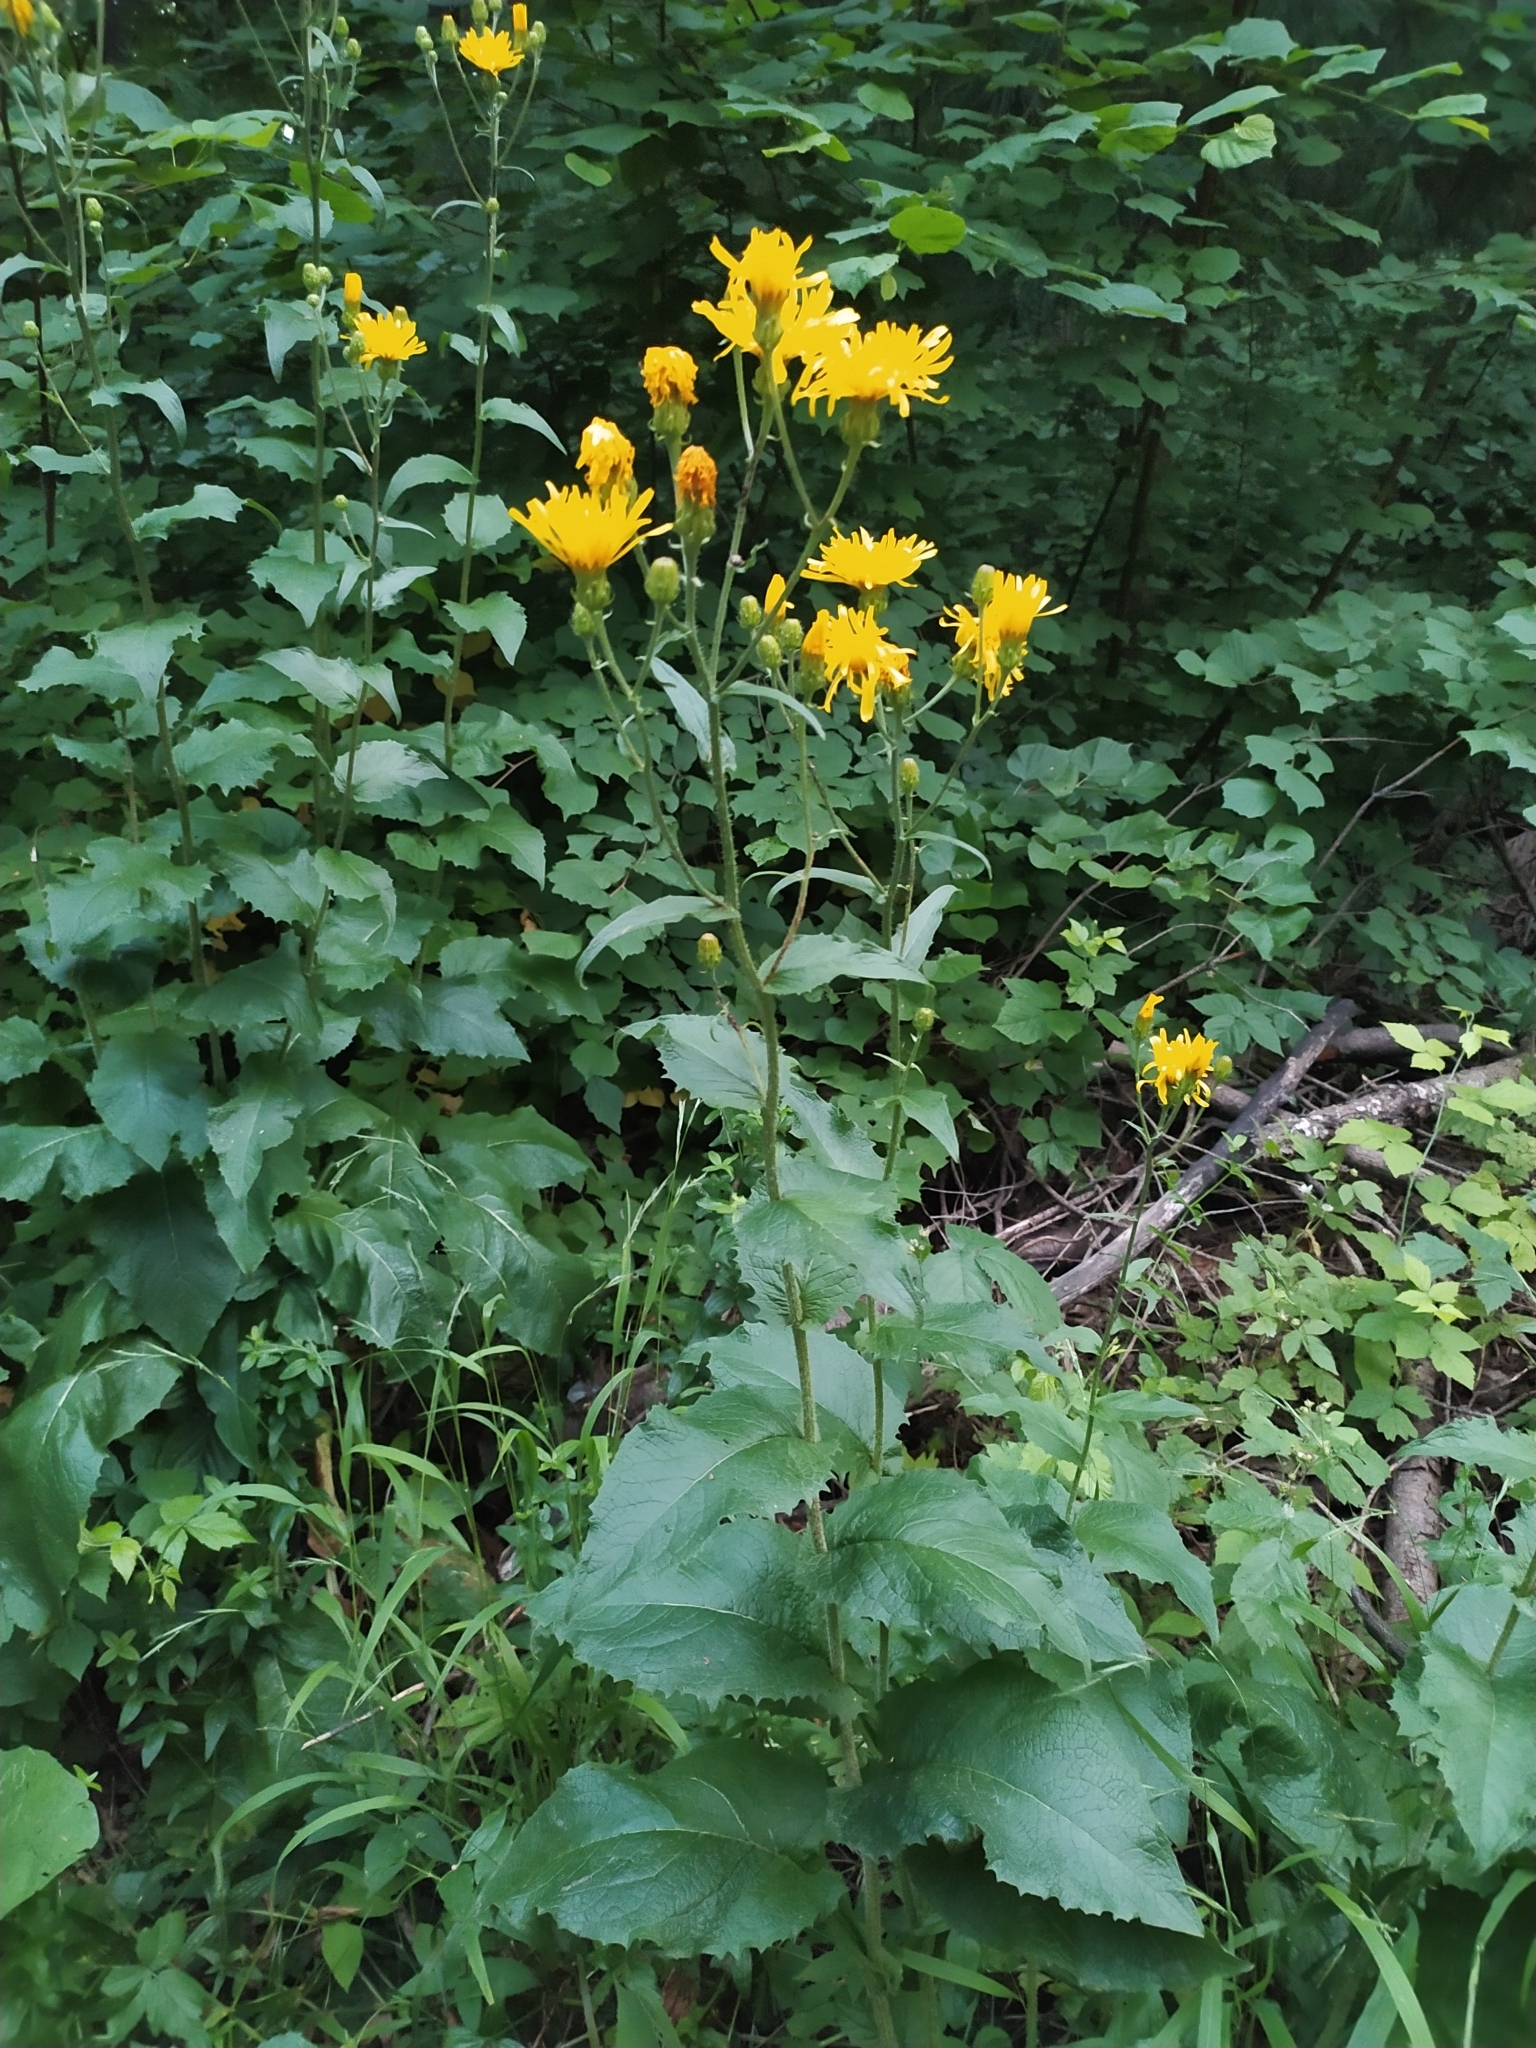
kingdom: Plantae
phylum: Tracheophyta
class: Magnoliopsida
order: Asterales
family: Asteraceae
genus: Crepis
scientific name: Crepis sibirica
